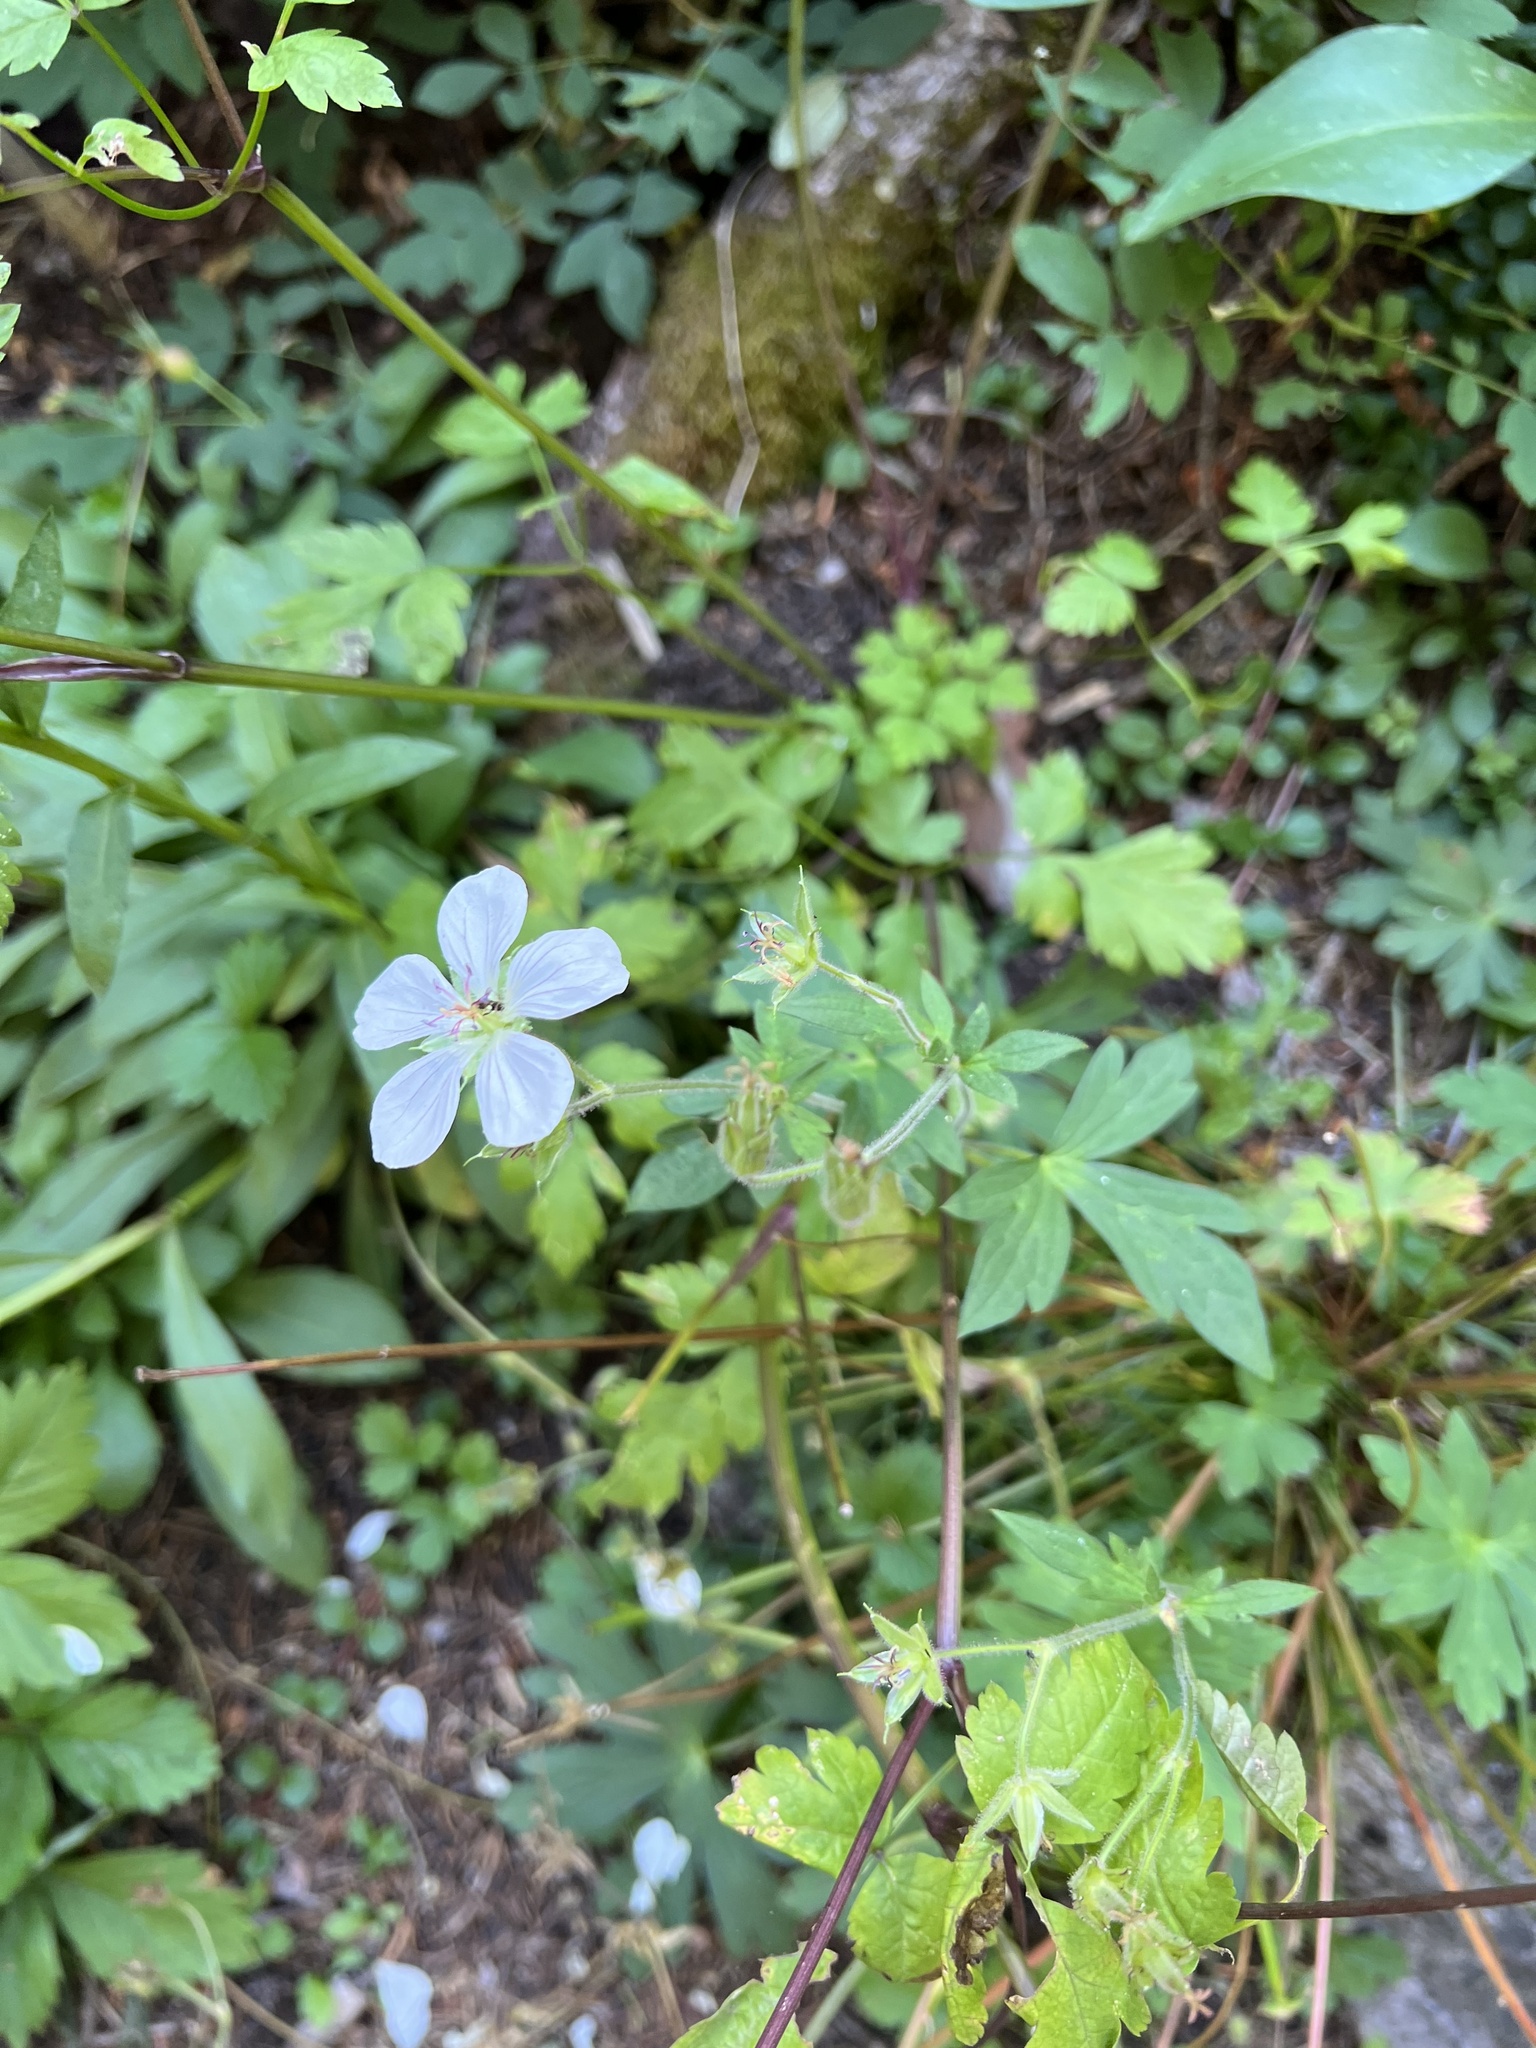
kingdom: Plantae
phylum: Tracheophyta
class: Magnoliopsida
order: Geraniales
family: Geraniaceae
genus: Geranium
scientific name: Geranium richardsonii
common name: Richardson's crane's-bill
